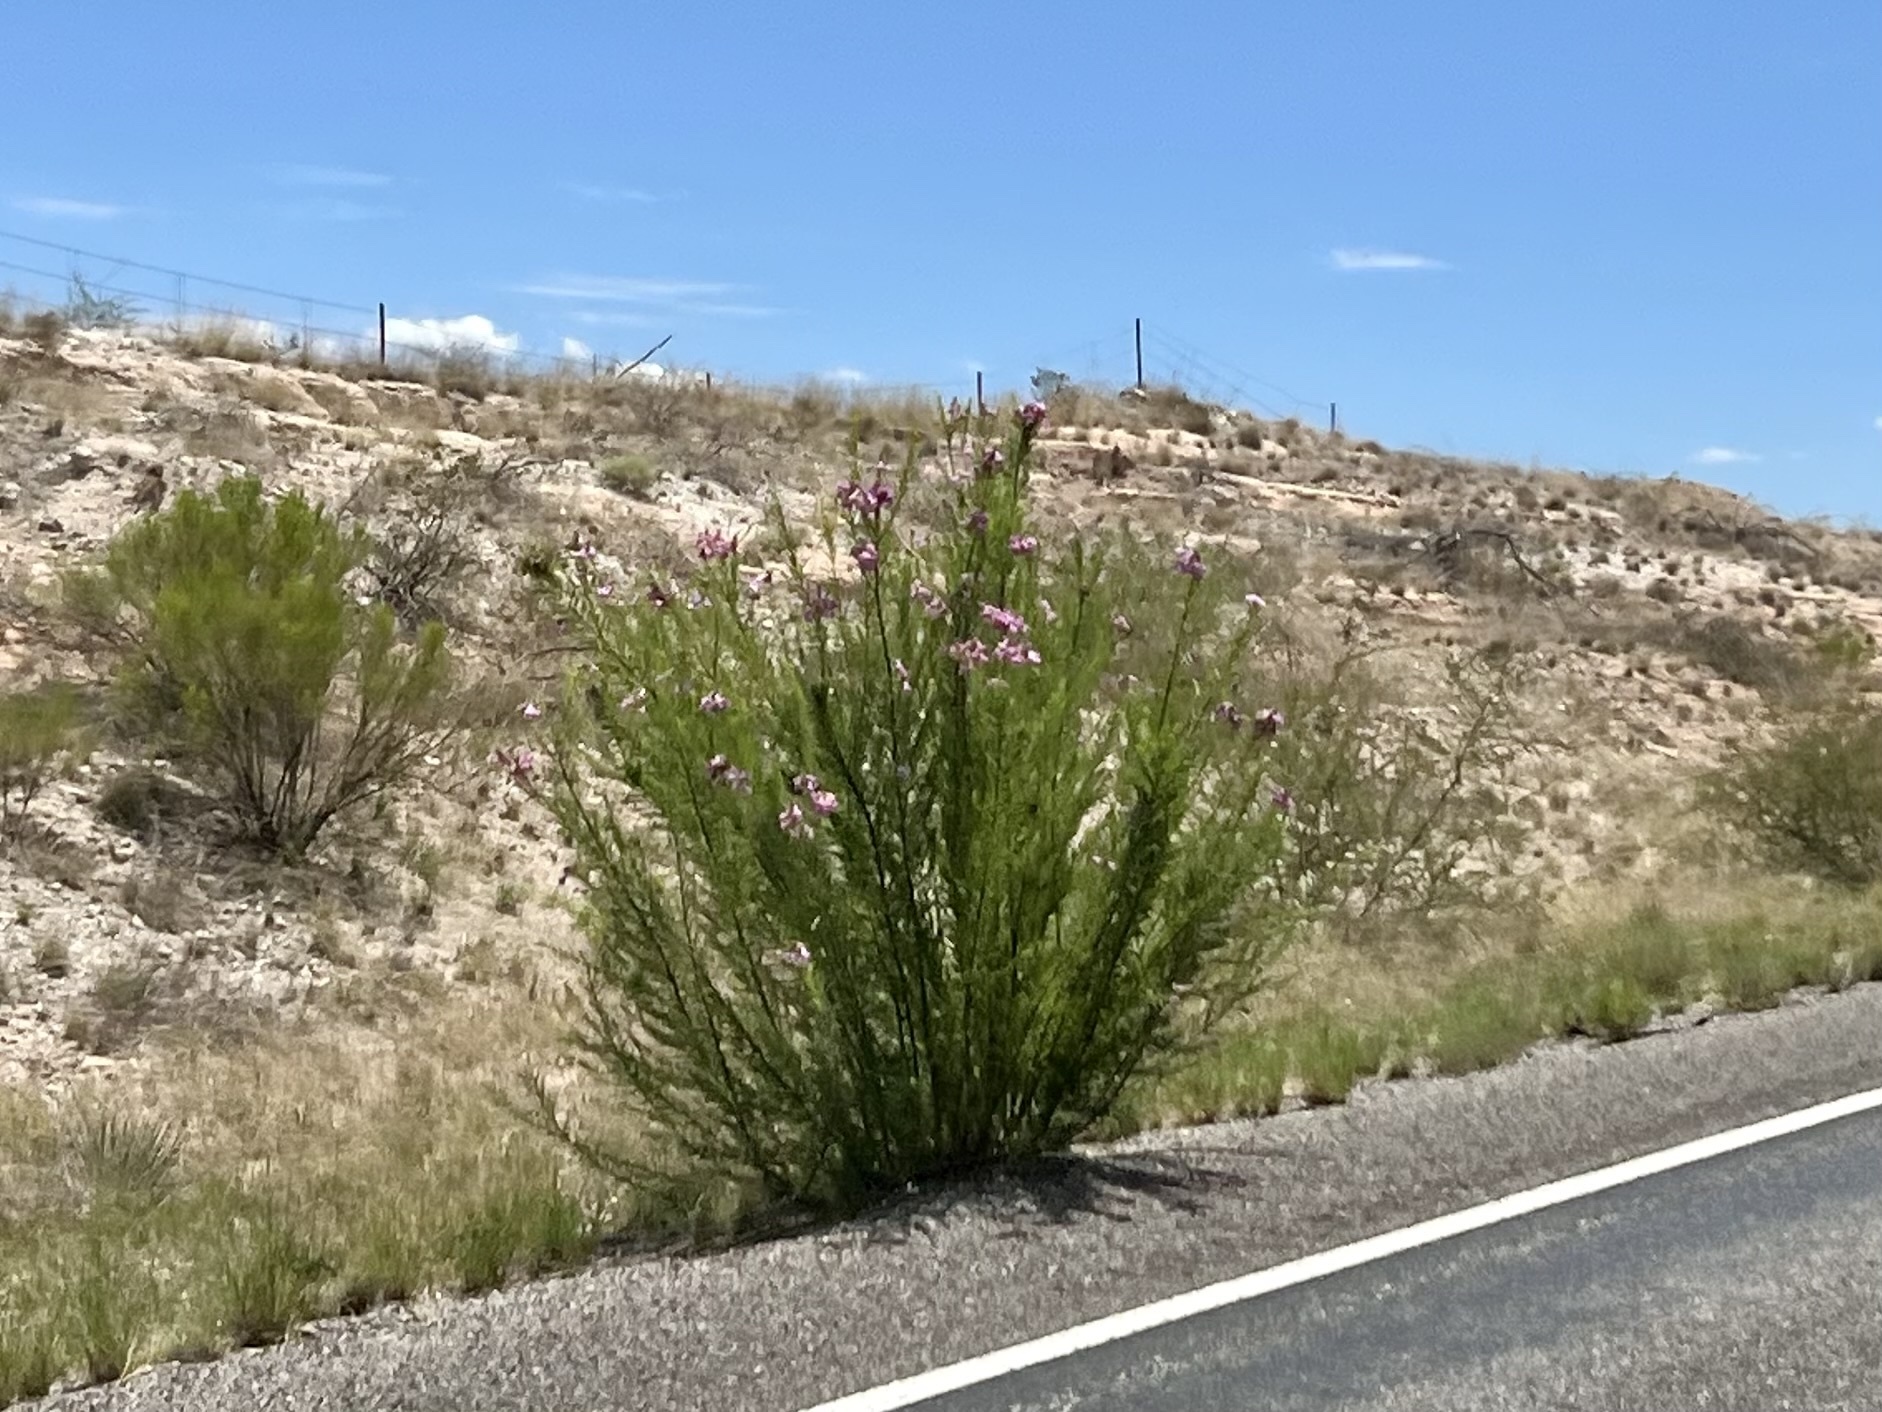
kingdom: Plantae
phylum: Tracheophyta
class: Magnoliopsida
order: Lamiales
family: Bignoniaceae
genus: Chilopsis
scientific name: Chilopsis linearis
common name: Desert-willow
